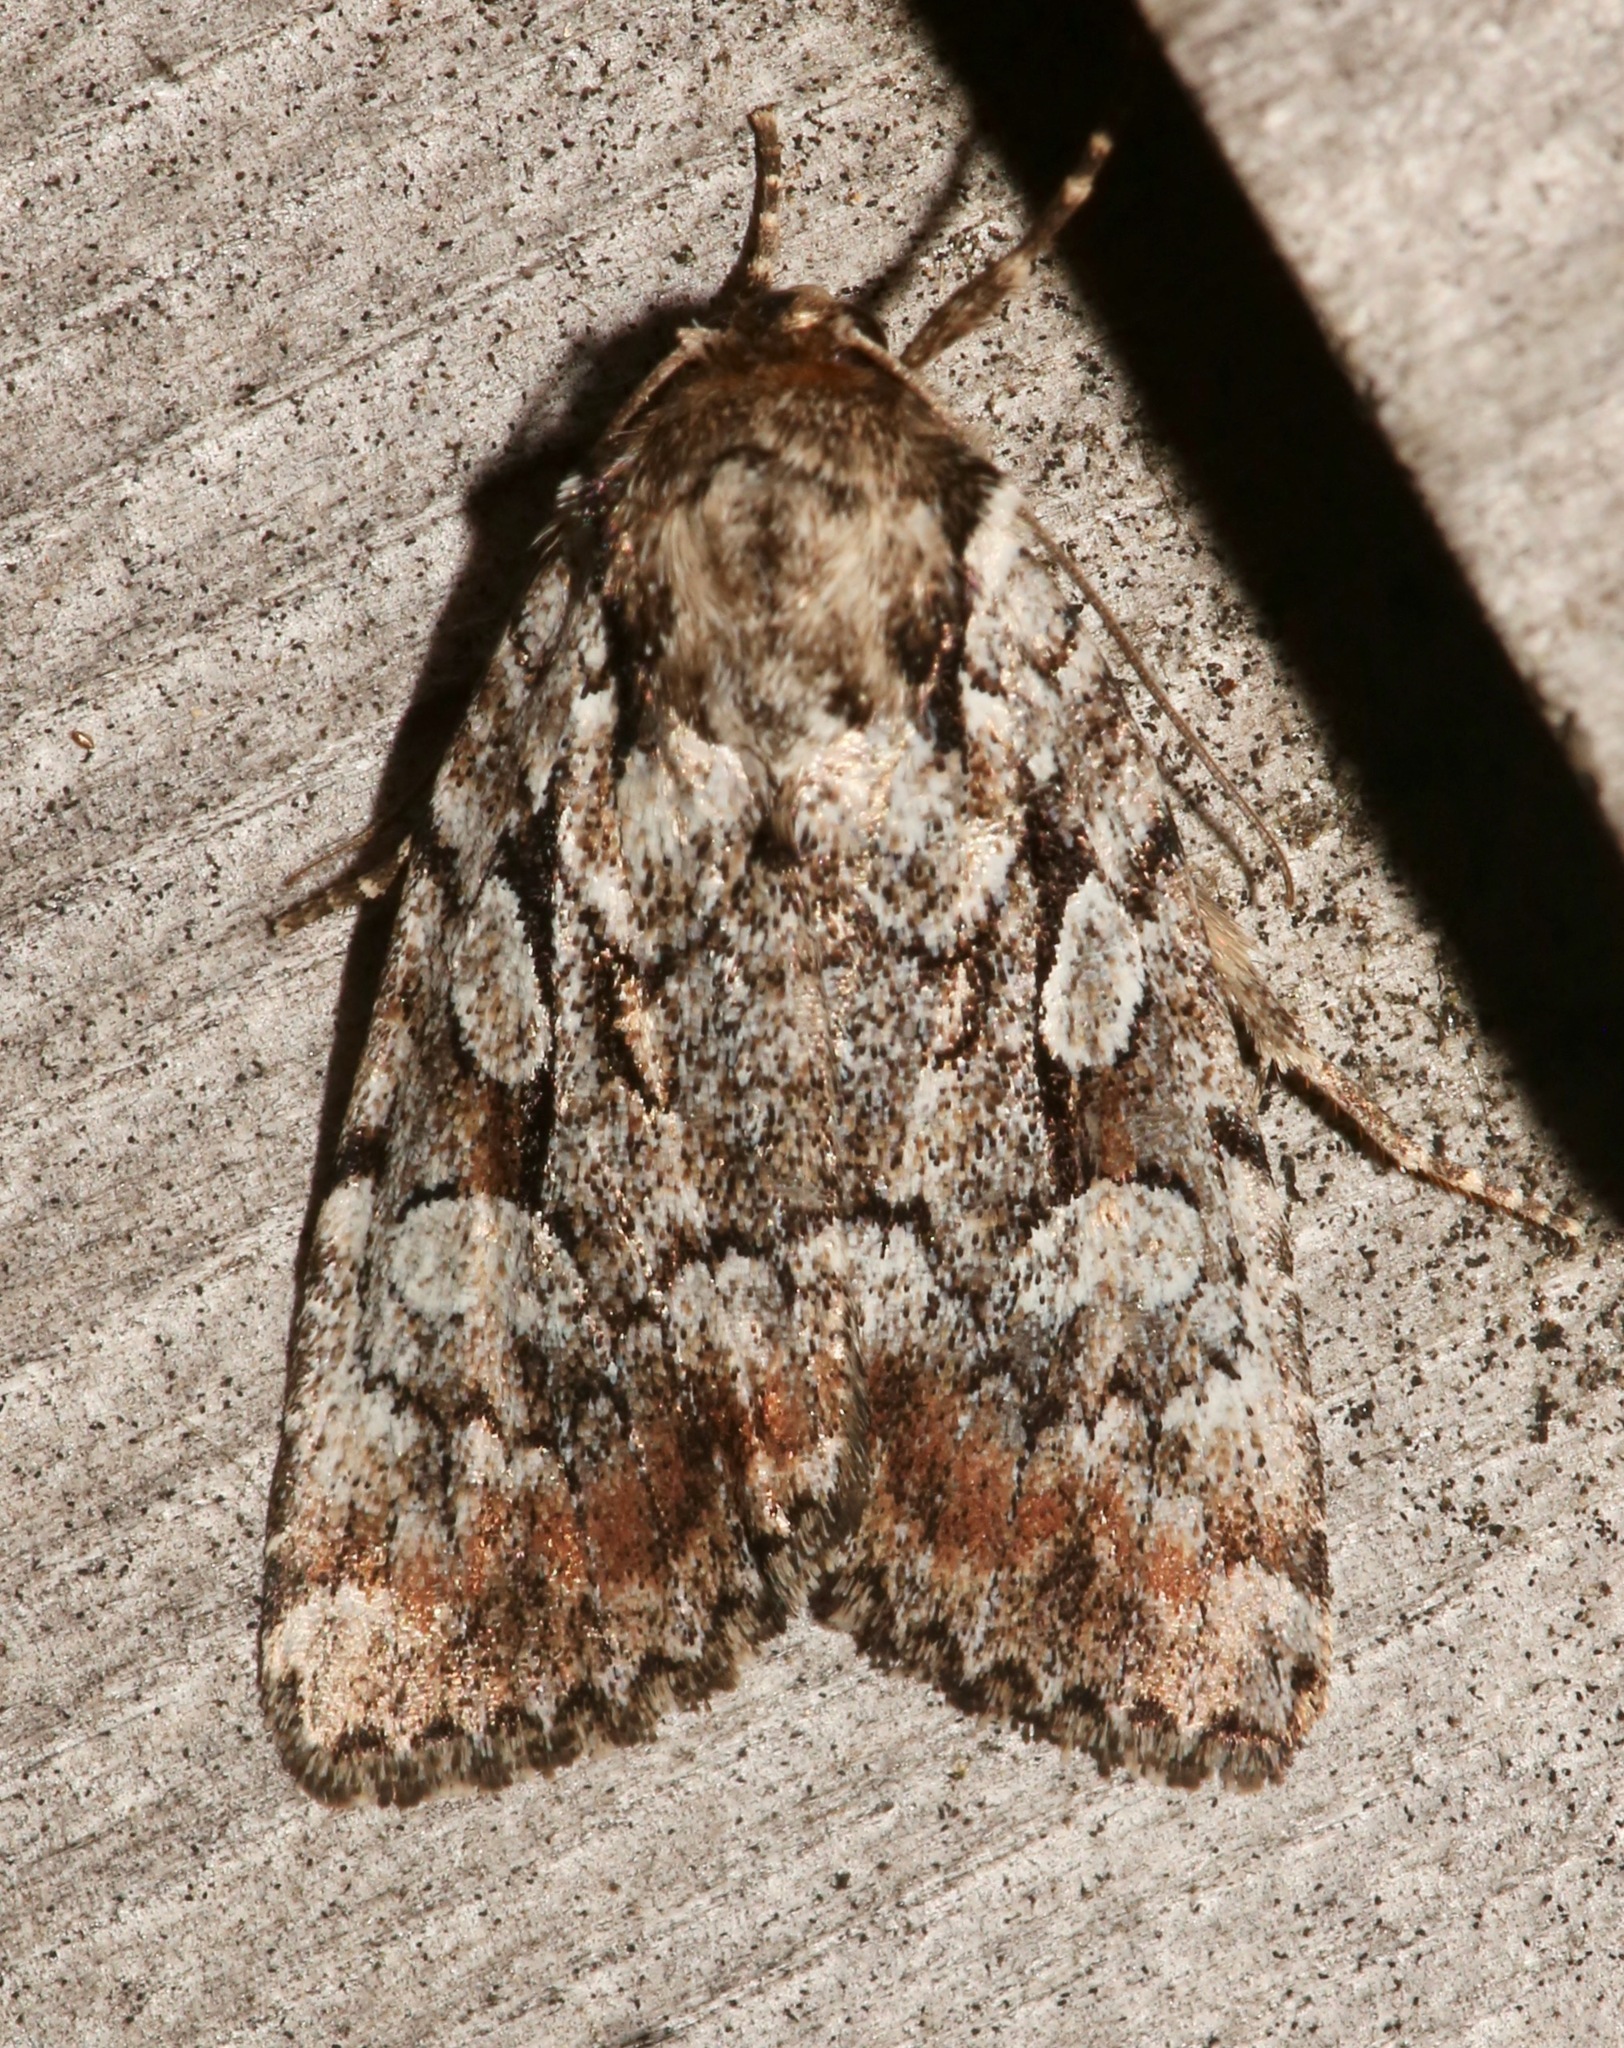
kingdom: Animalia
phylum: Arthropoda
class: Insecta
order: Lepidoptera
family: Noctuidae
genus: Aplectoides
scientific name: Aplectoides condita
